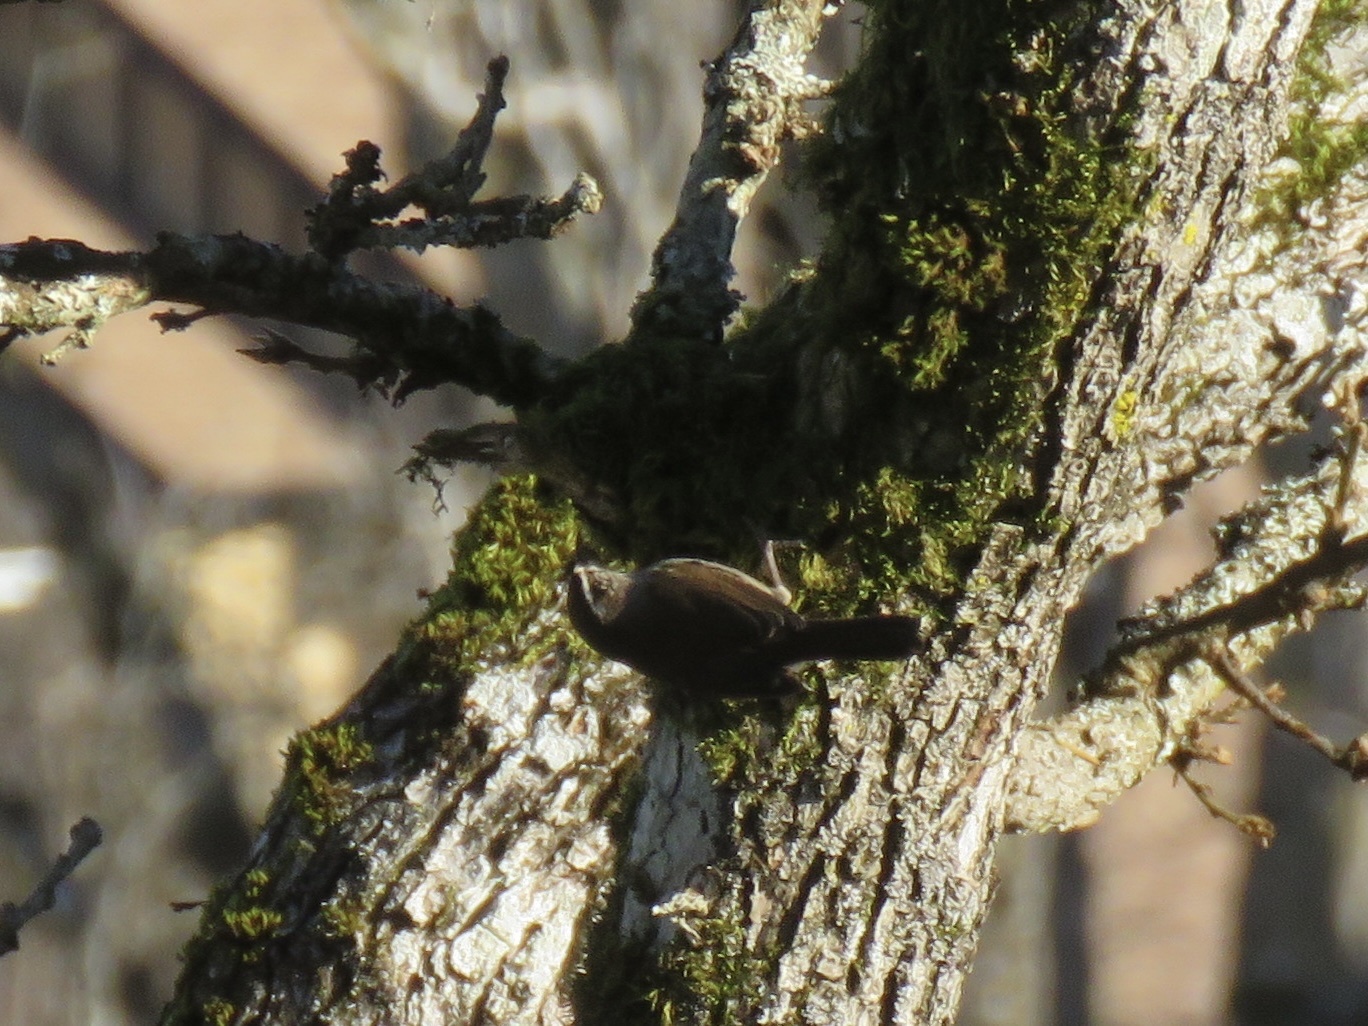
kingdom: Animalia
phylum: Chordata
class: Aves
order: Passeriformes
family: Troglodytidae
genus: Thryomanes
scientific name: Thryomanes bewickii
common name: Bewick's wren
